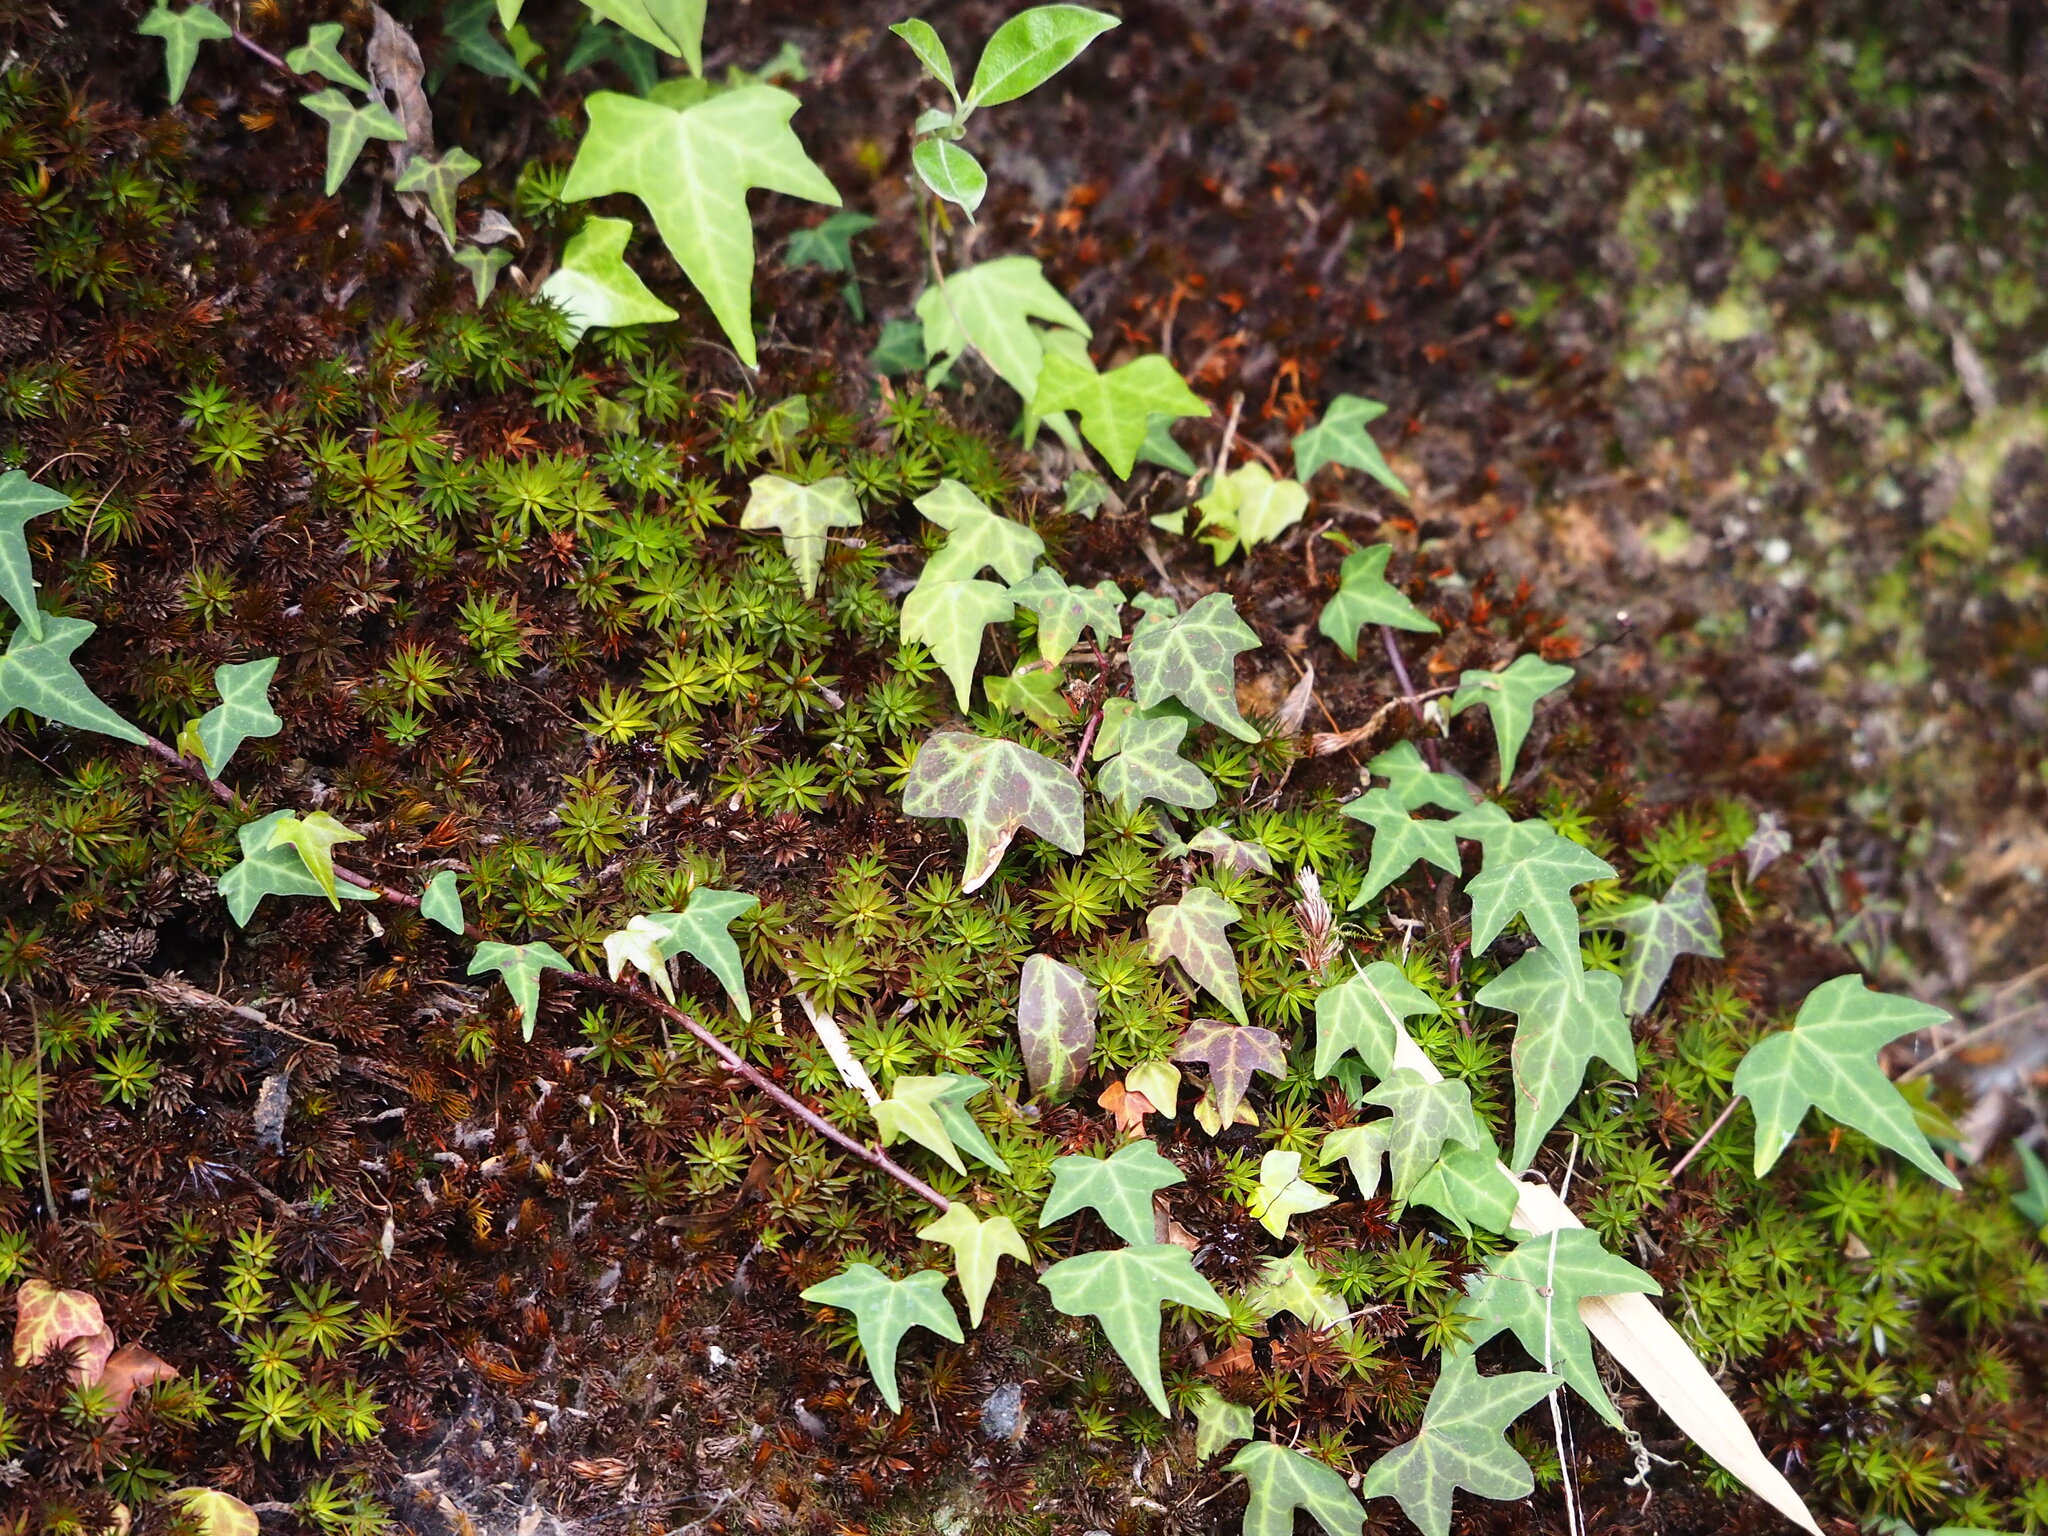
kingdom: Plantae
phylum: Tracheophyta
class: Magnoliopsida
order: Apiales
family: Araliaceae
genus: Hedera
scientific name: Hedera rhombea
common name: Japanese ivy
